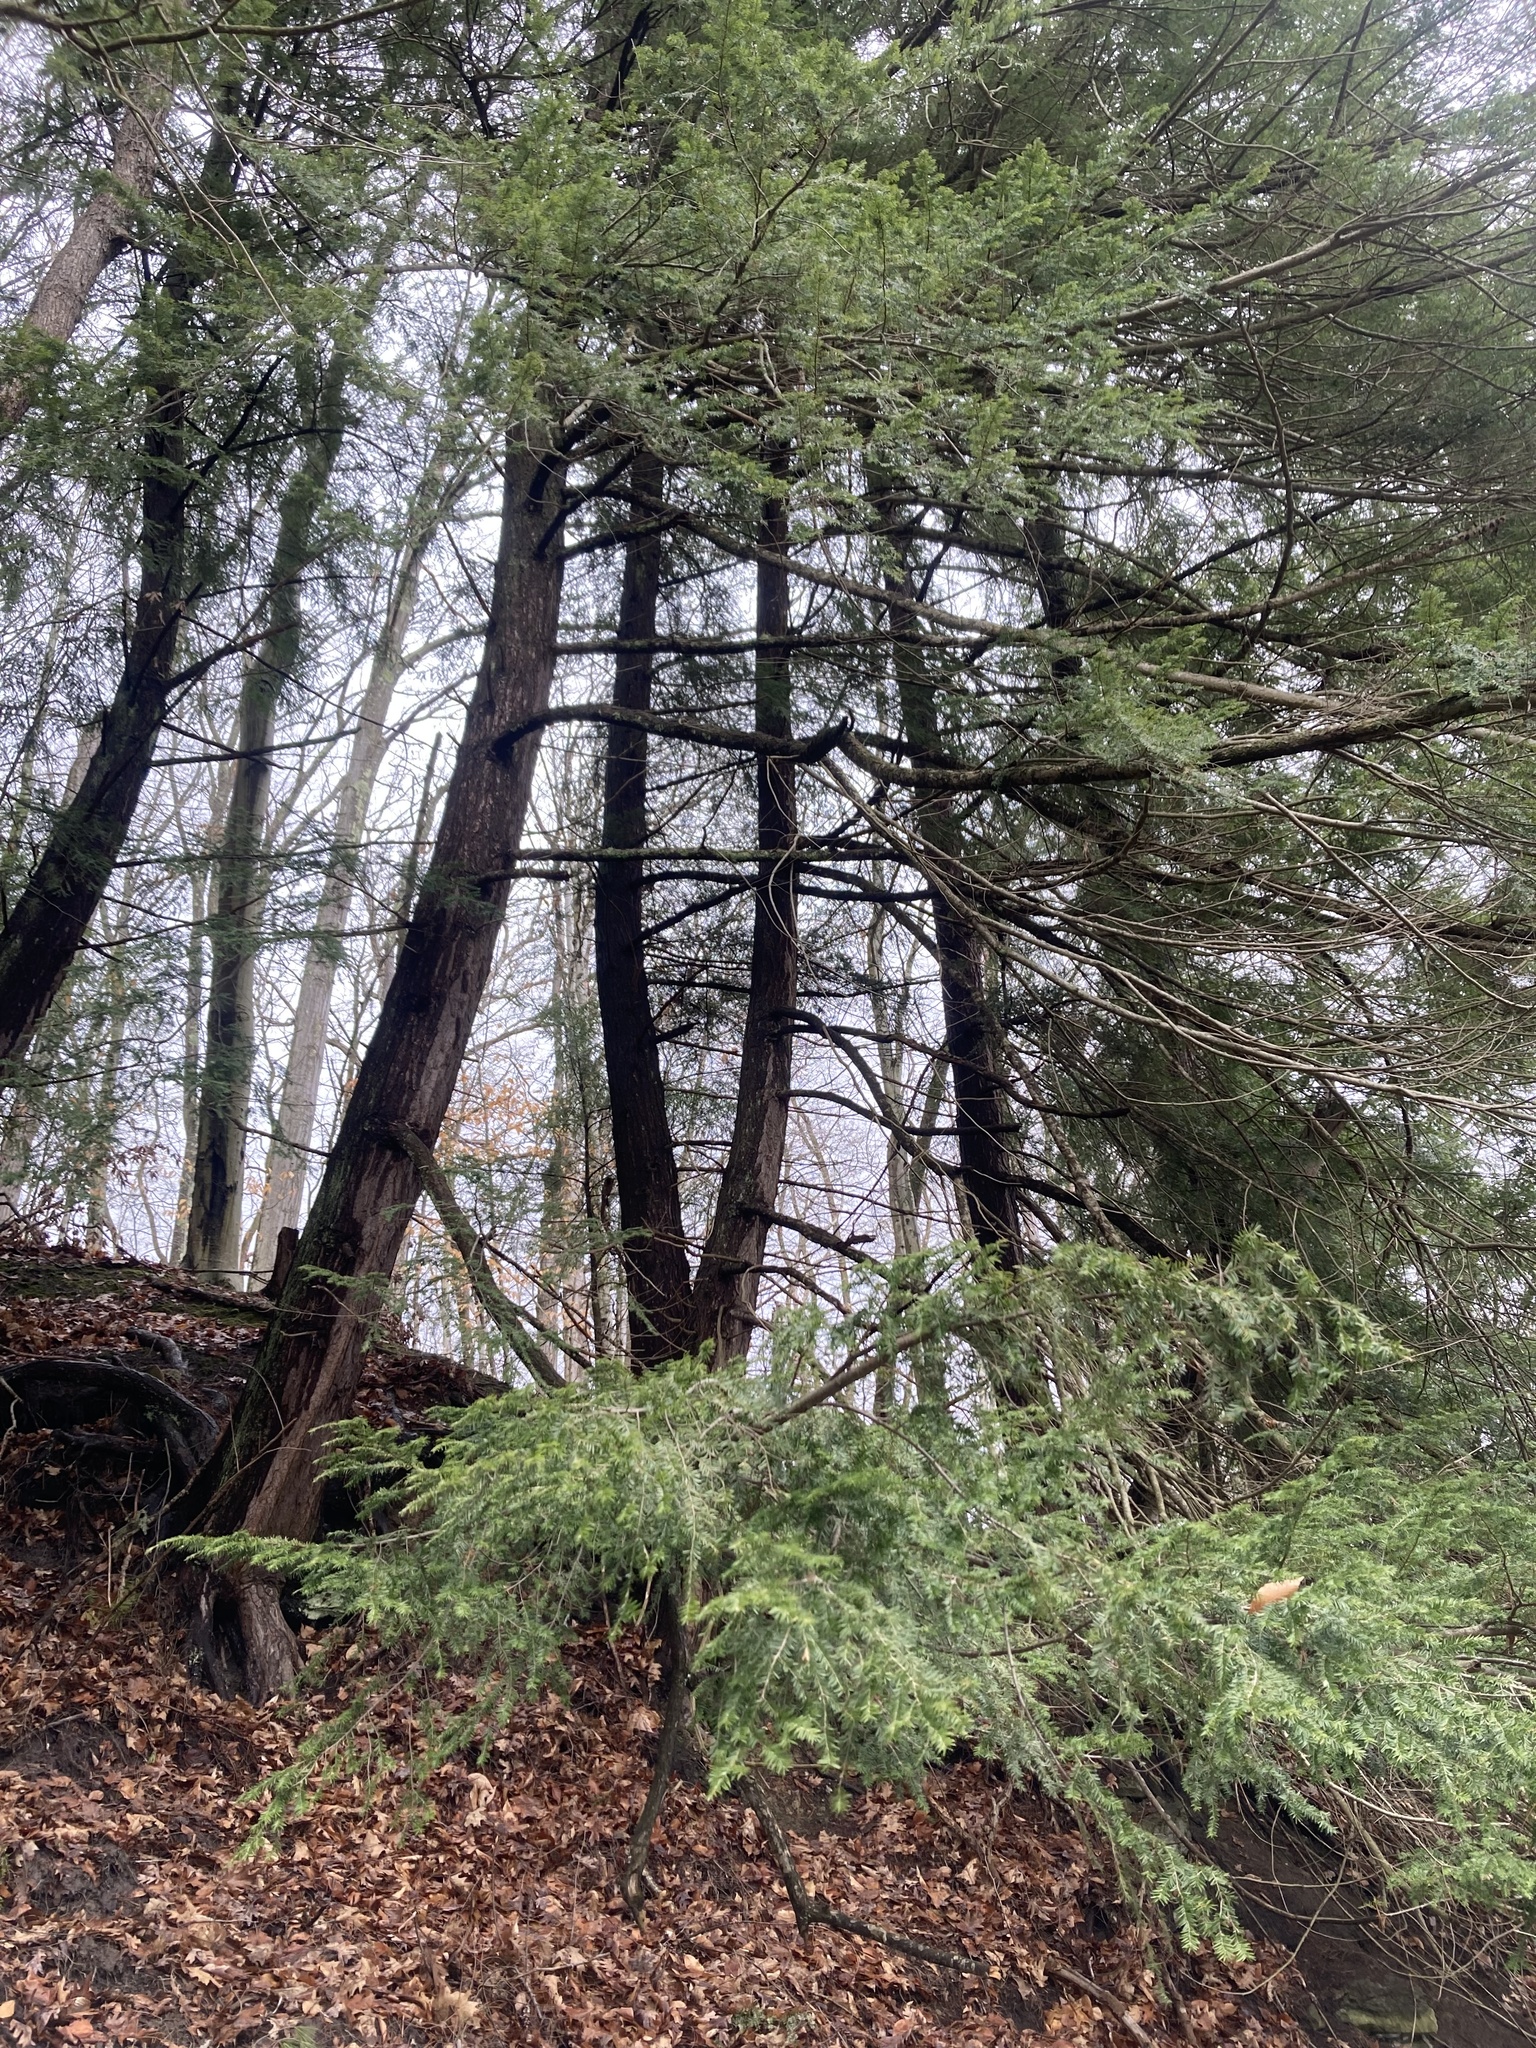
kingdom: Plantae
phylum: Tracheophyta
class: Pinopsida
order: Pinales
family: Pinaceae
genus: Tsuga
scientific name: Tsuga canadensis
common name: Eastern hemlock
